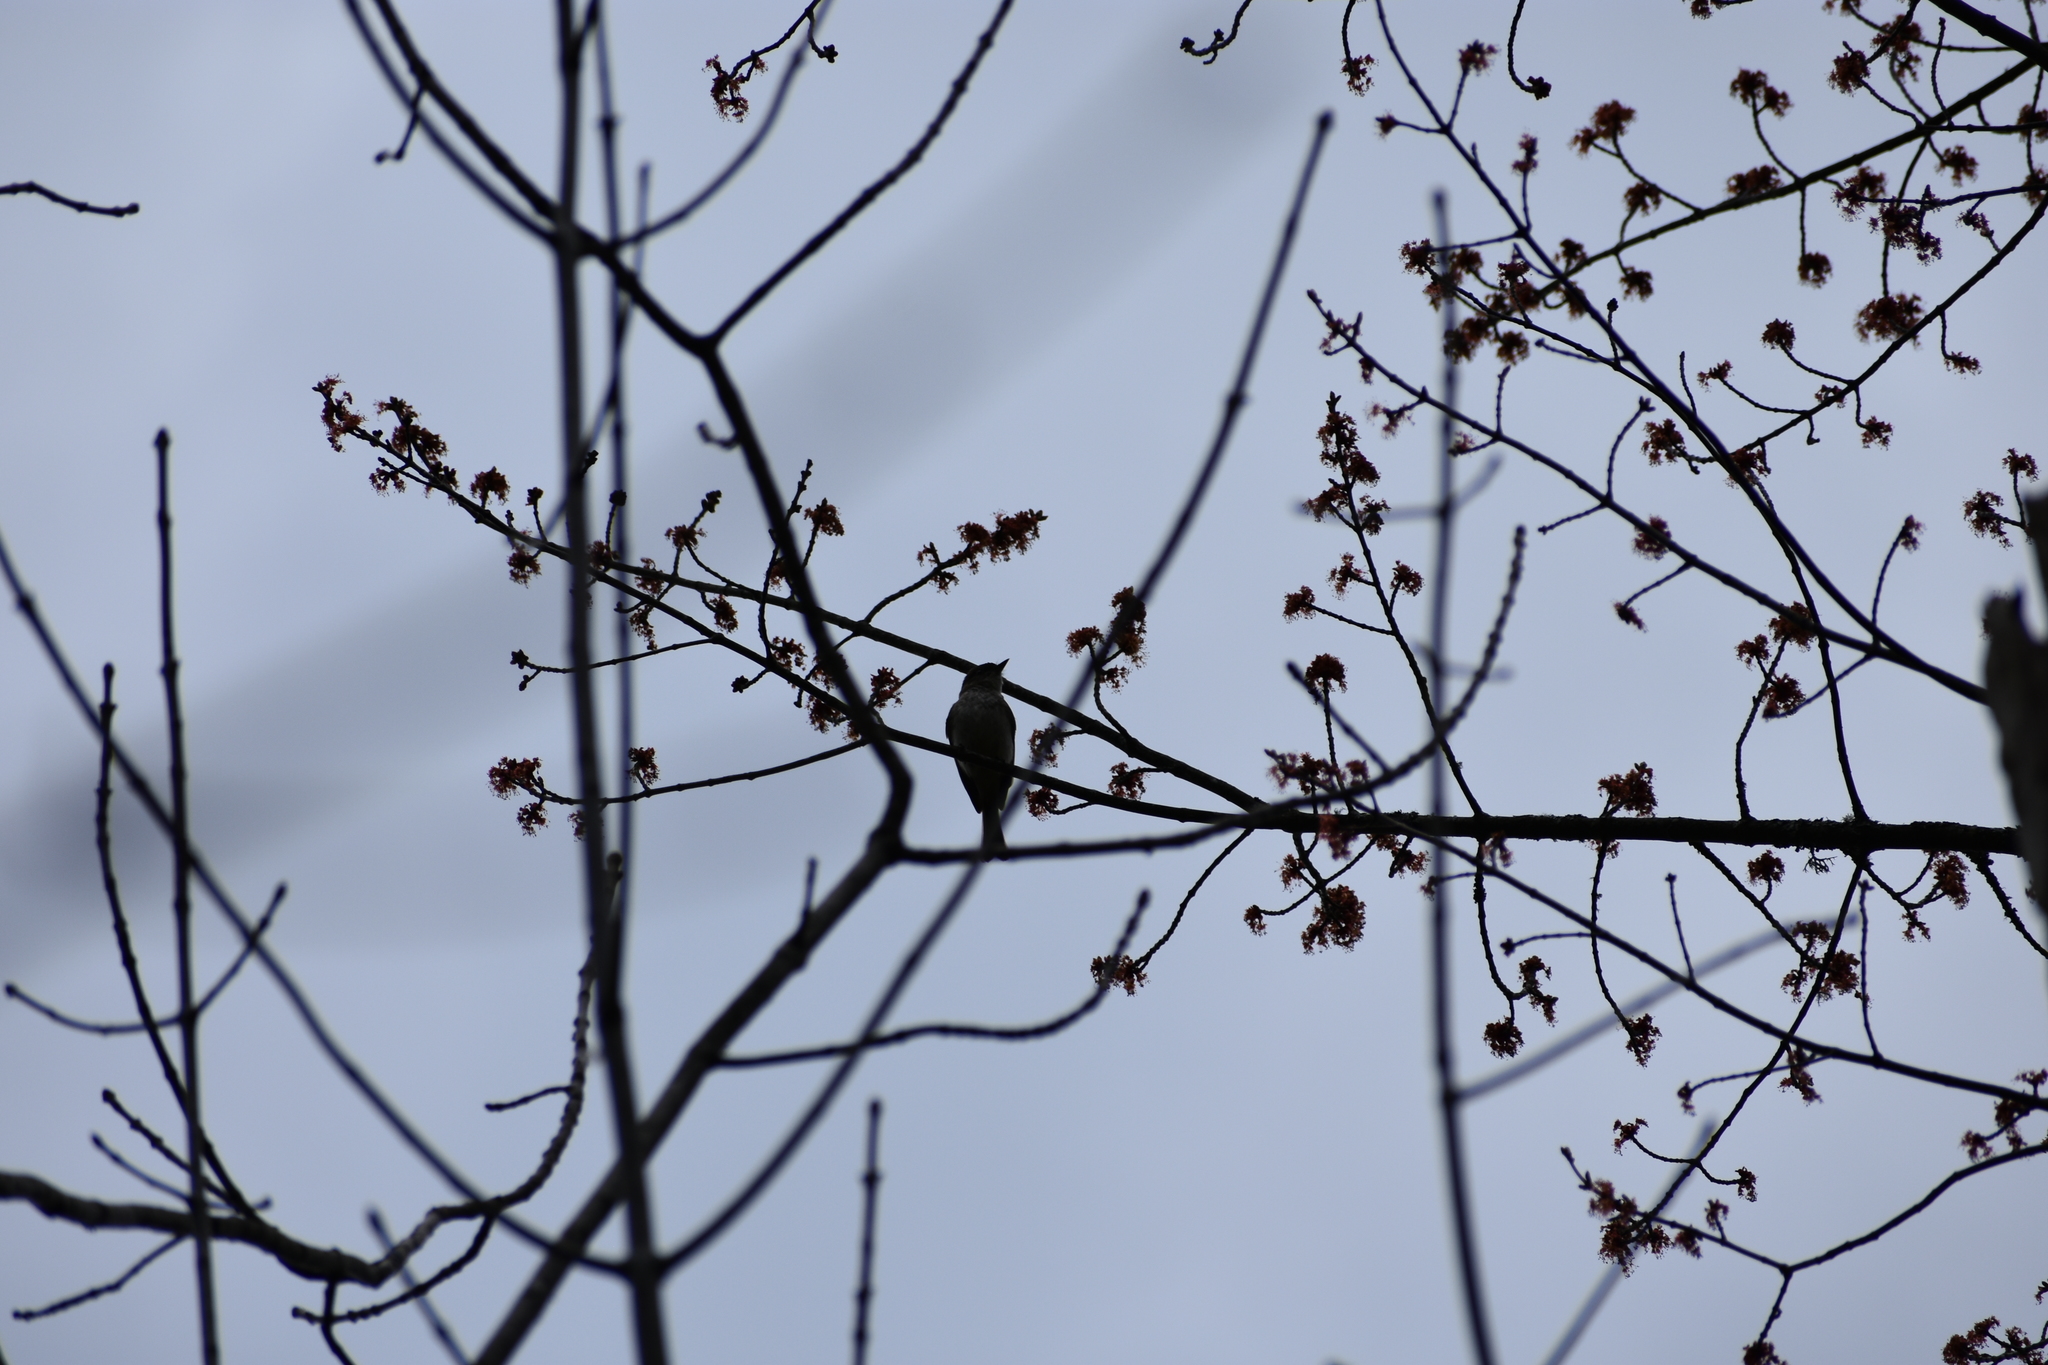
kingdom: Animalia
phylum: Chordata
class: Aves
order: Passeriformes
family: Tyrannidae
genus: Sayornis
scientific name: Sayornis phoebe
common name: Eastern phoebe
